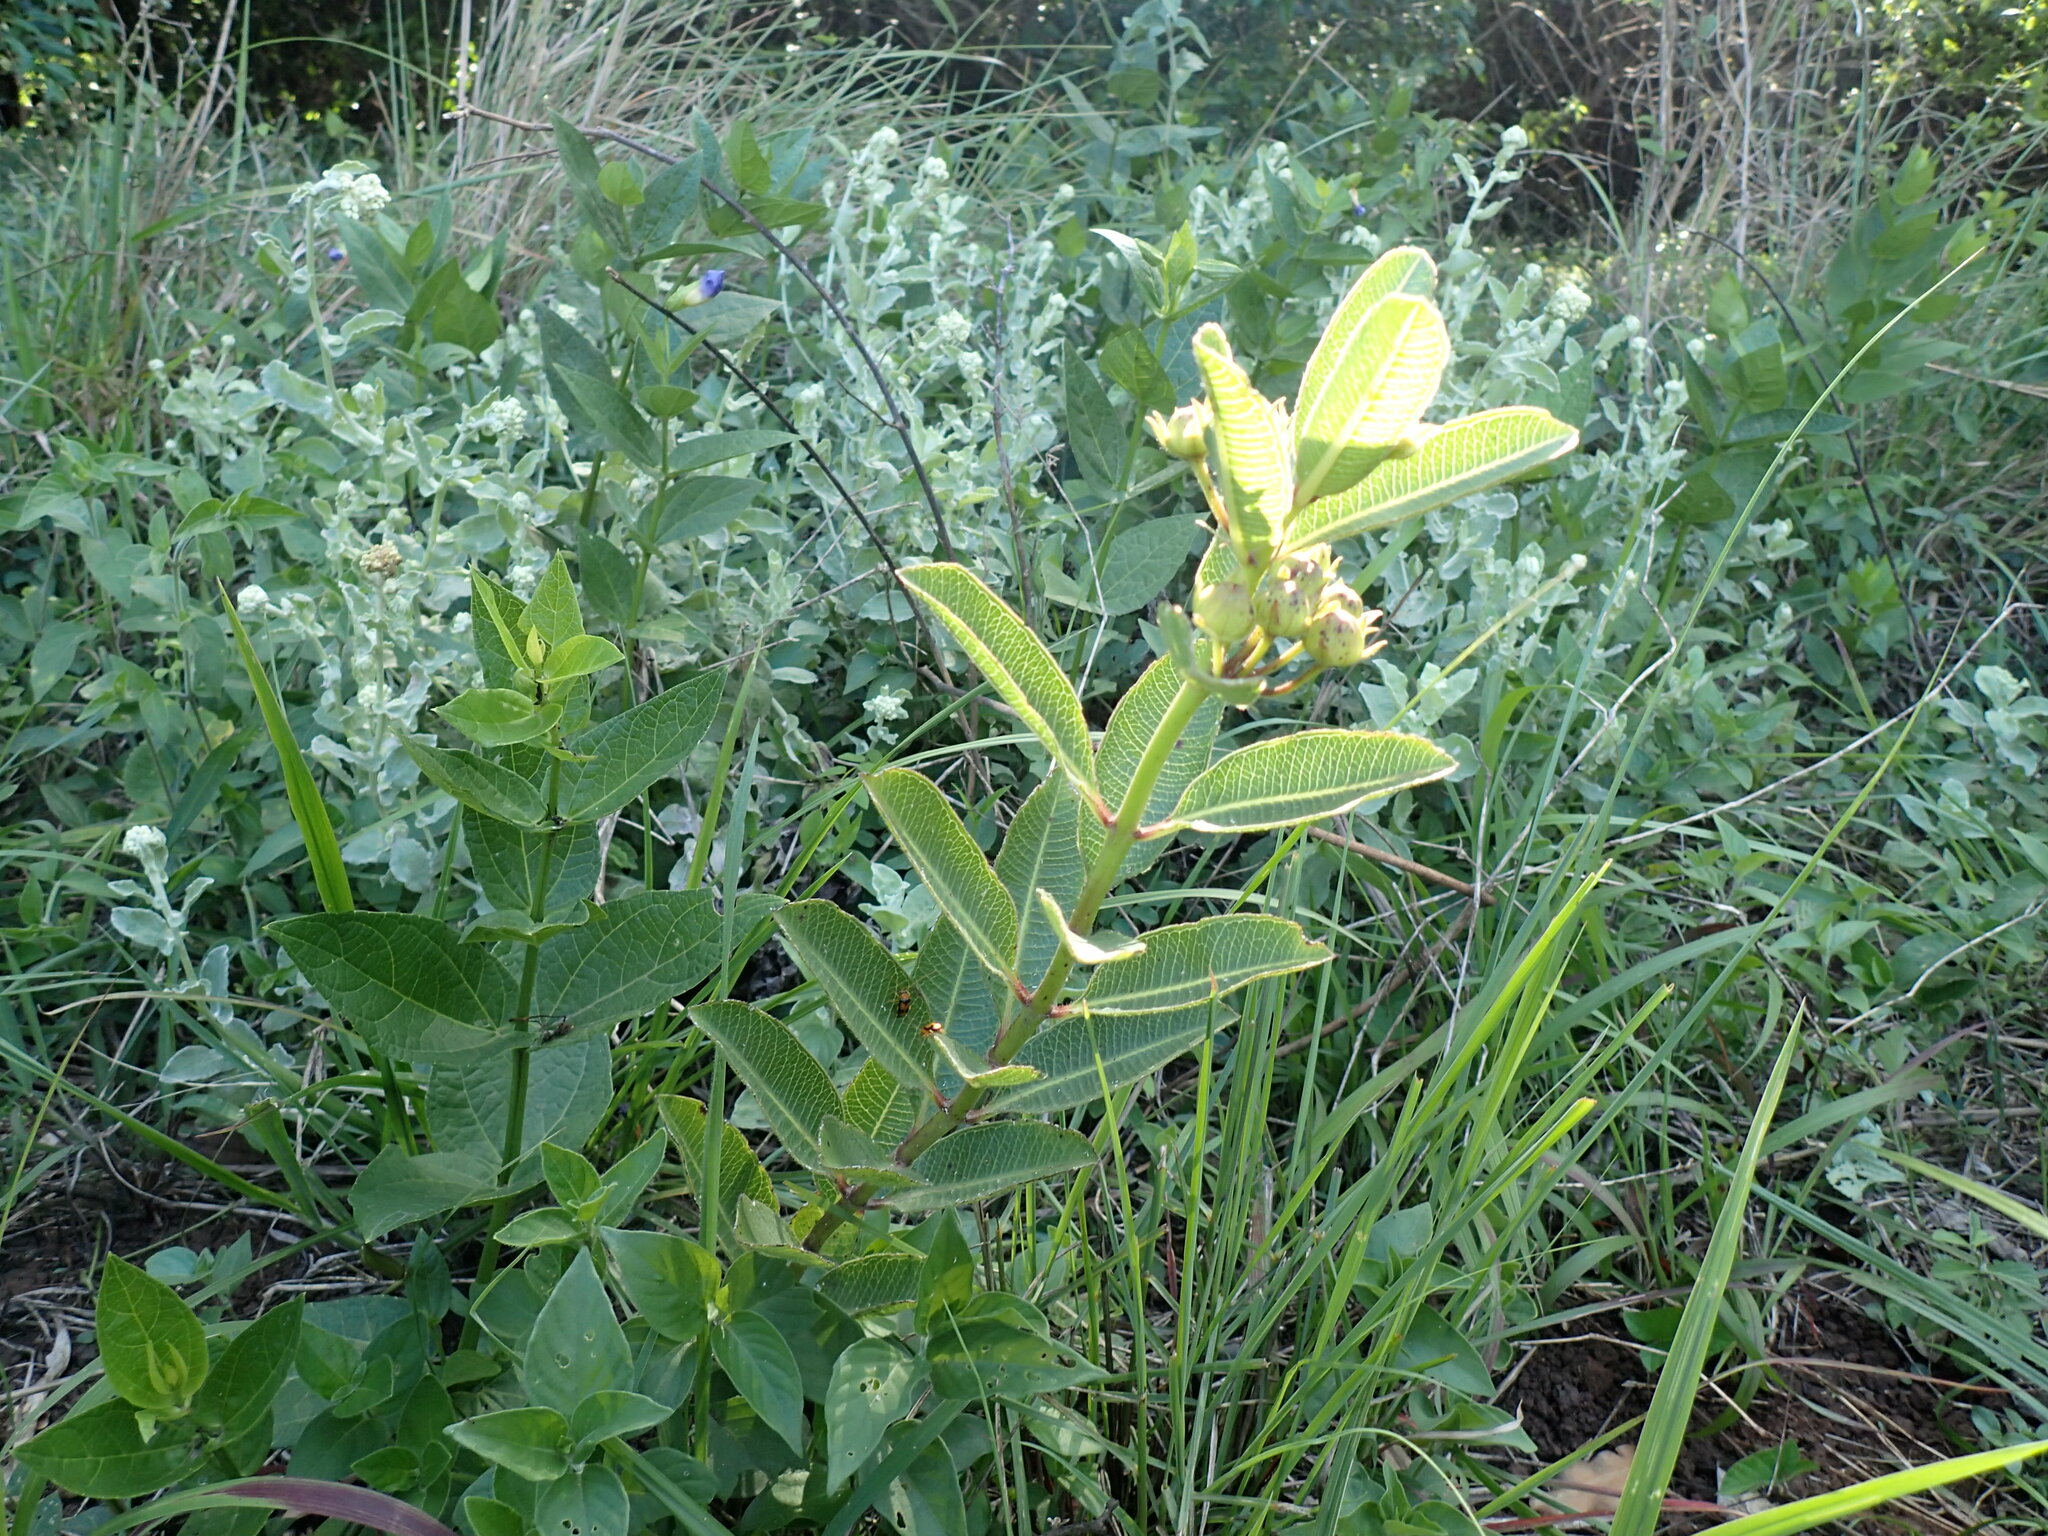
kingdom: Plantae
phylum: Tracheophyta
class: Magnoliopsida
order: Gentianales
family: Apocynaceae
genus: Pachycarpus
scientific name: Pachycarpus natalensis
